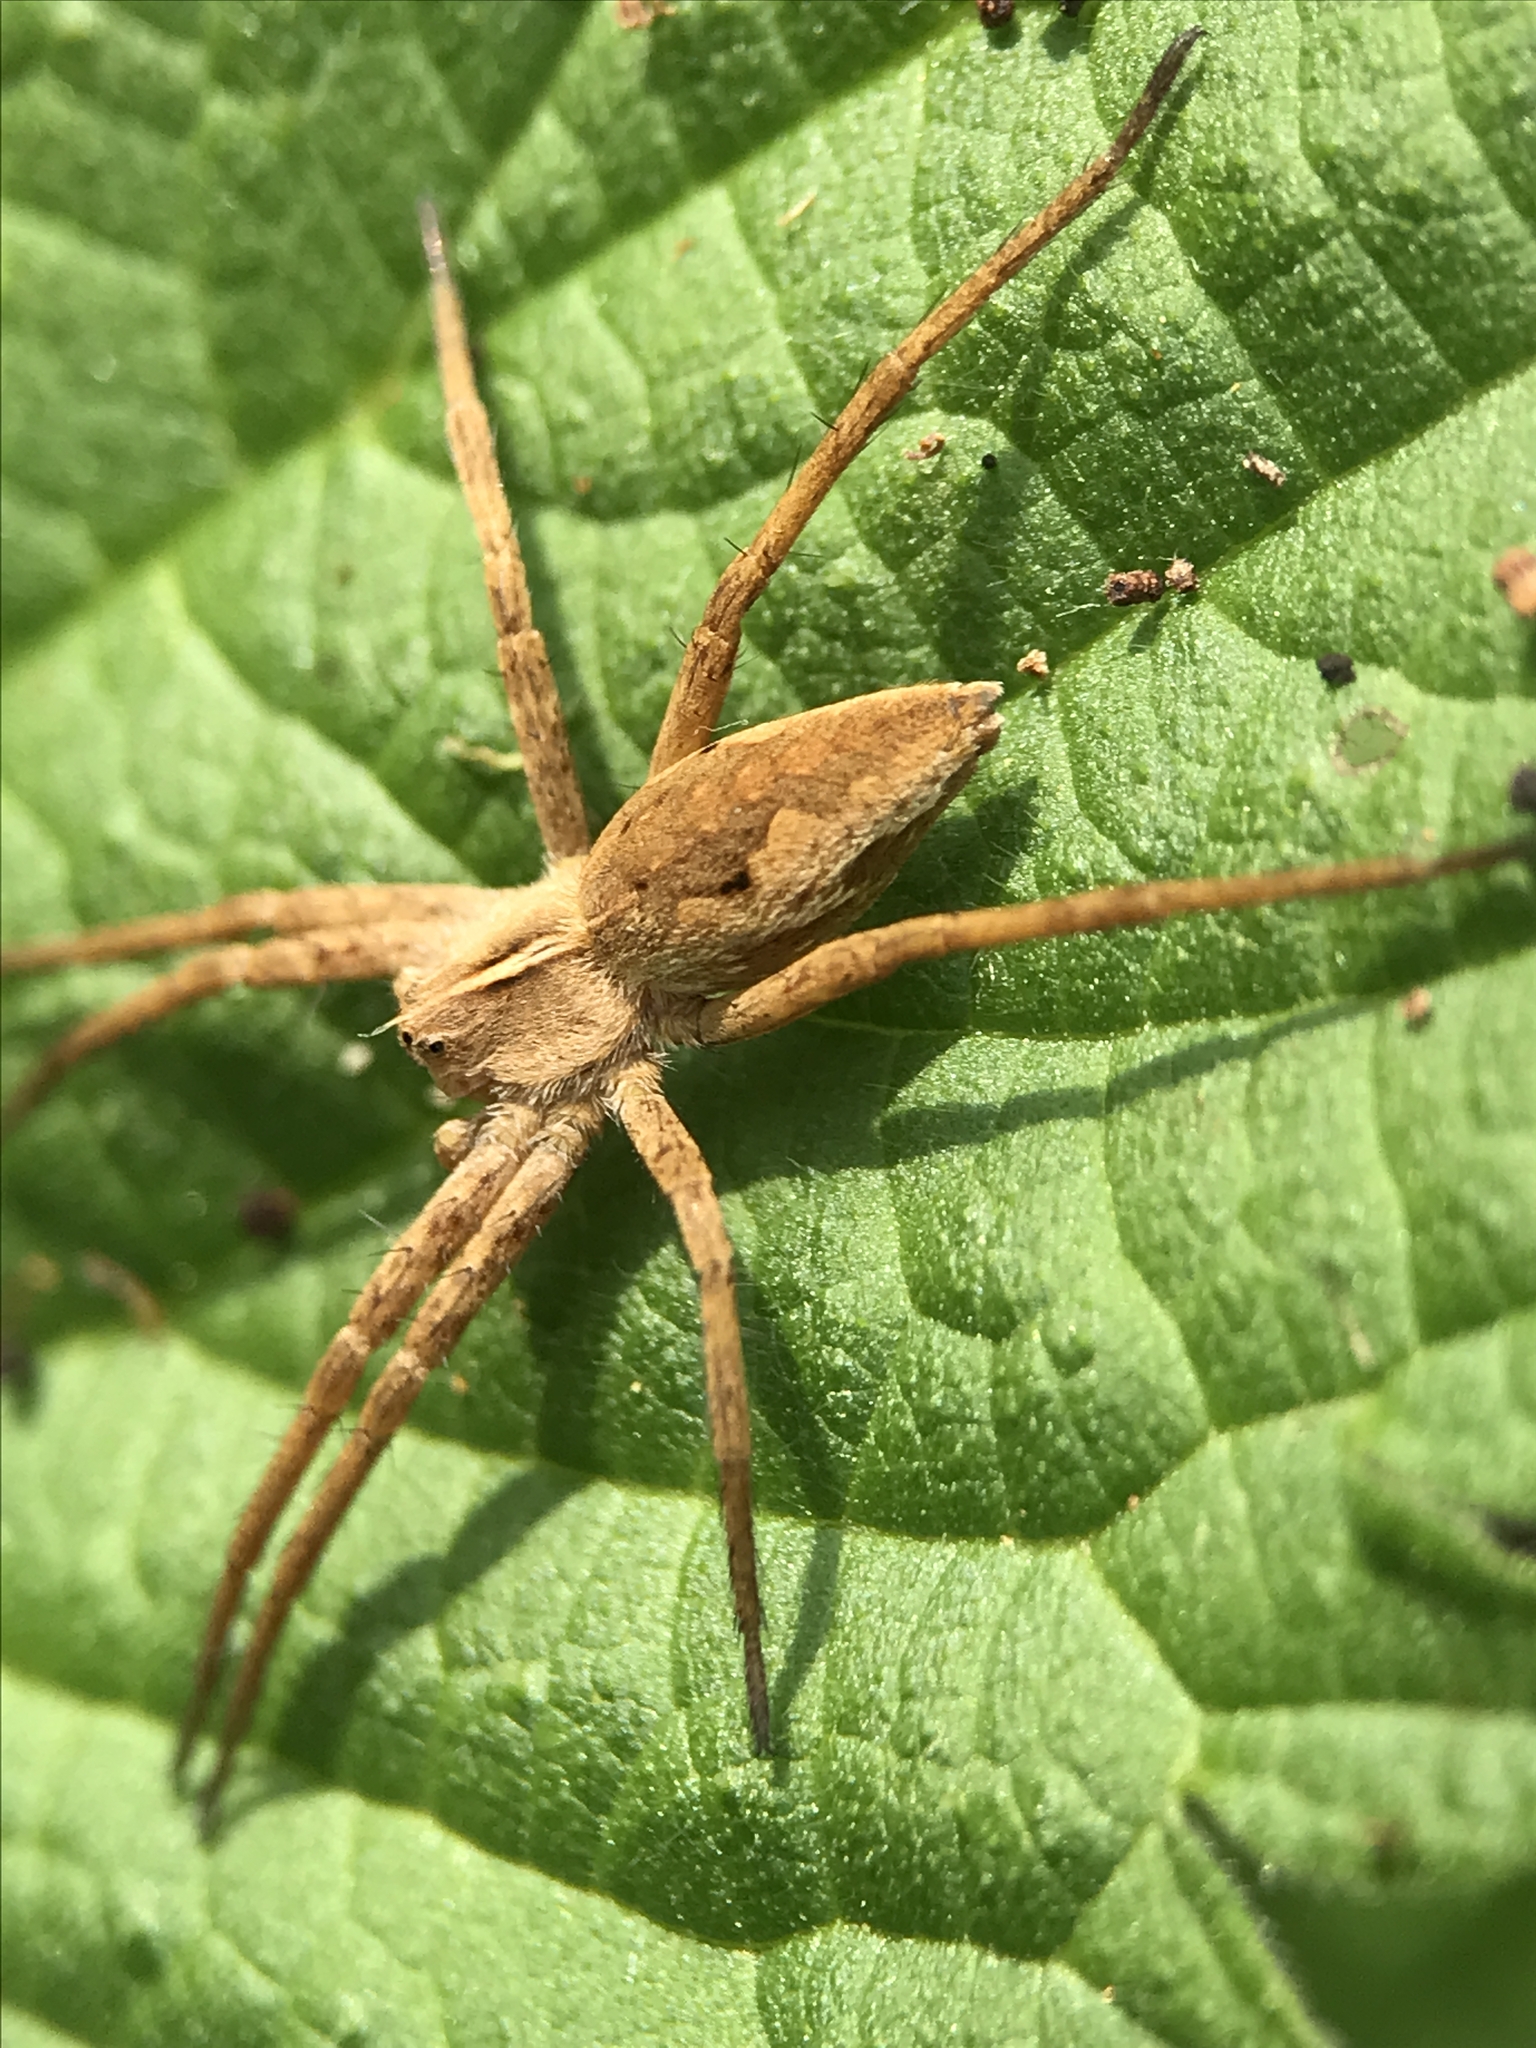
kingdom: Animalia
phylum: Arthropoda
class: Arachnida
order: Araneae
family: Pisauridae
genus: Pisaura
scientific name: Pisaura mirabilis
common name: Tent spider
